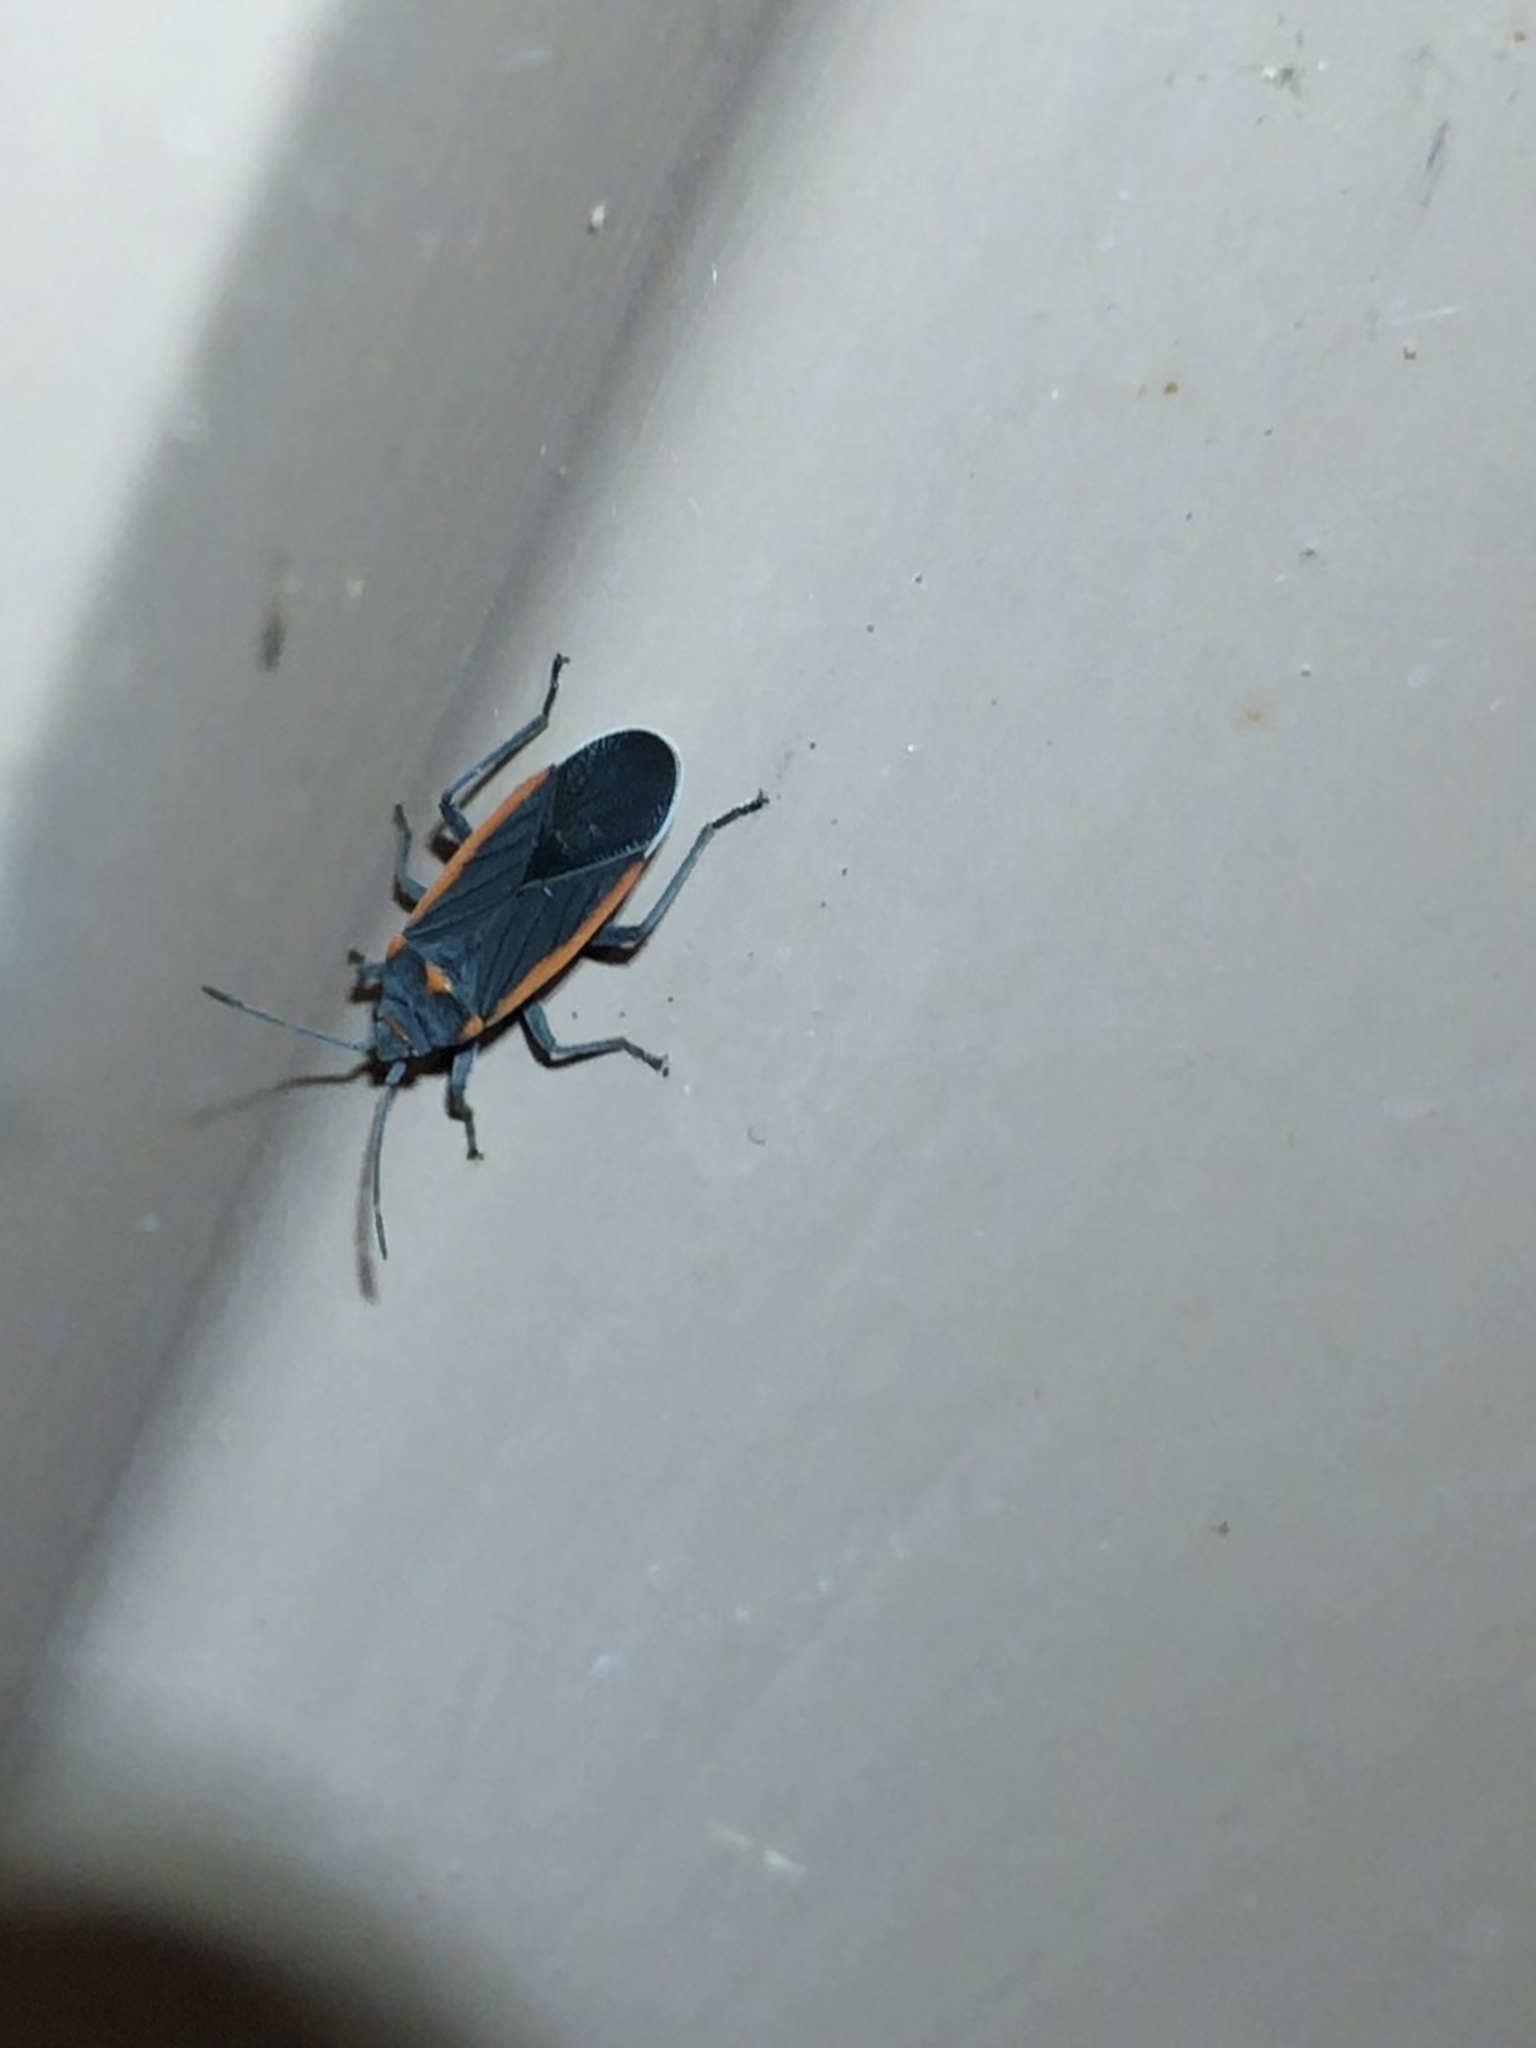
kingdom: Animalia
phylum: Arthropoda
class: Insecta
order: Hemiptera
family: Lygaeidae
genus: Melacoryphus
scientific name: Melacoryphus lateralis
